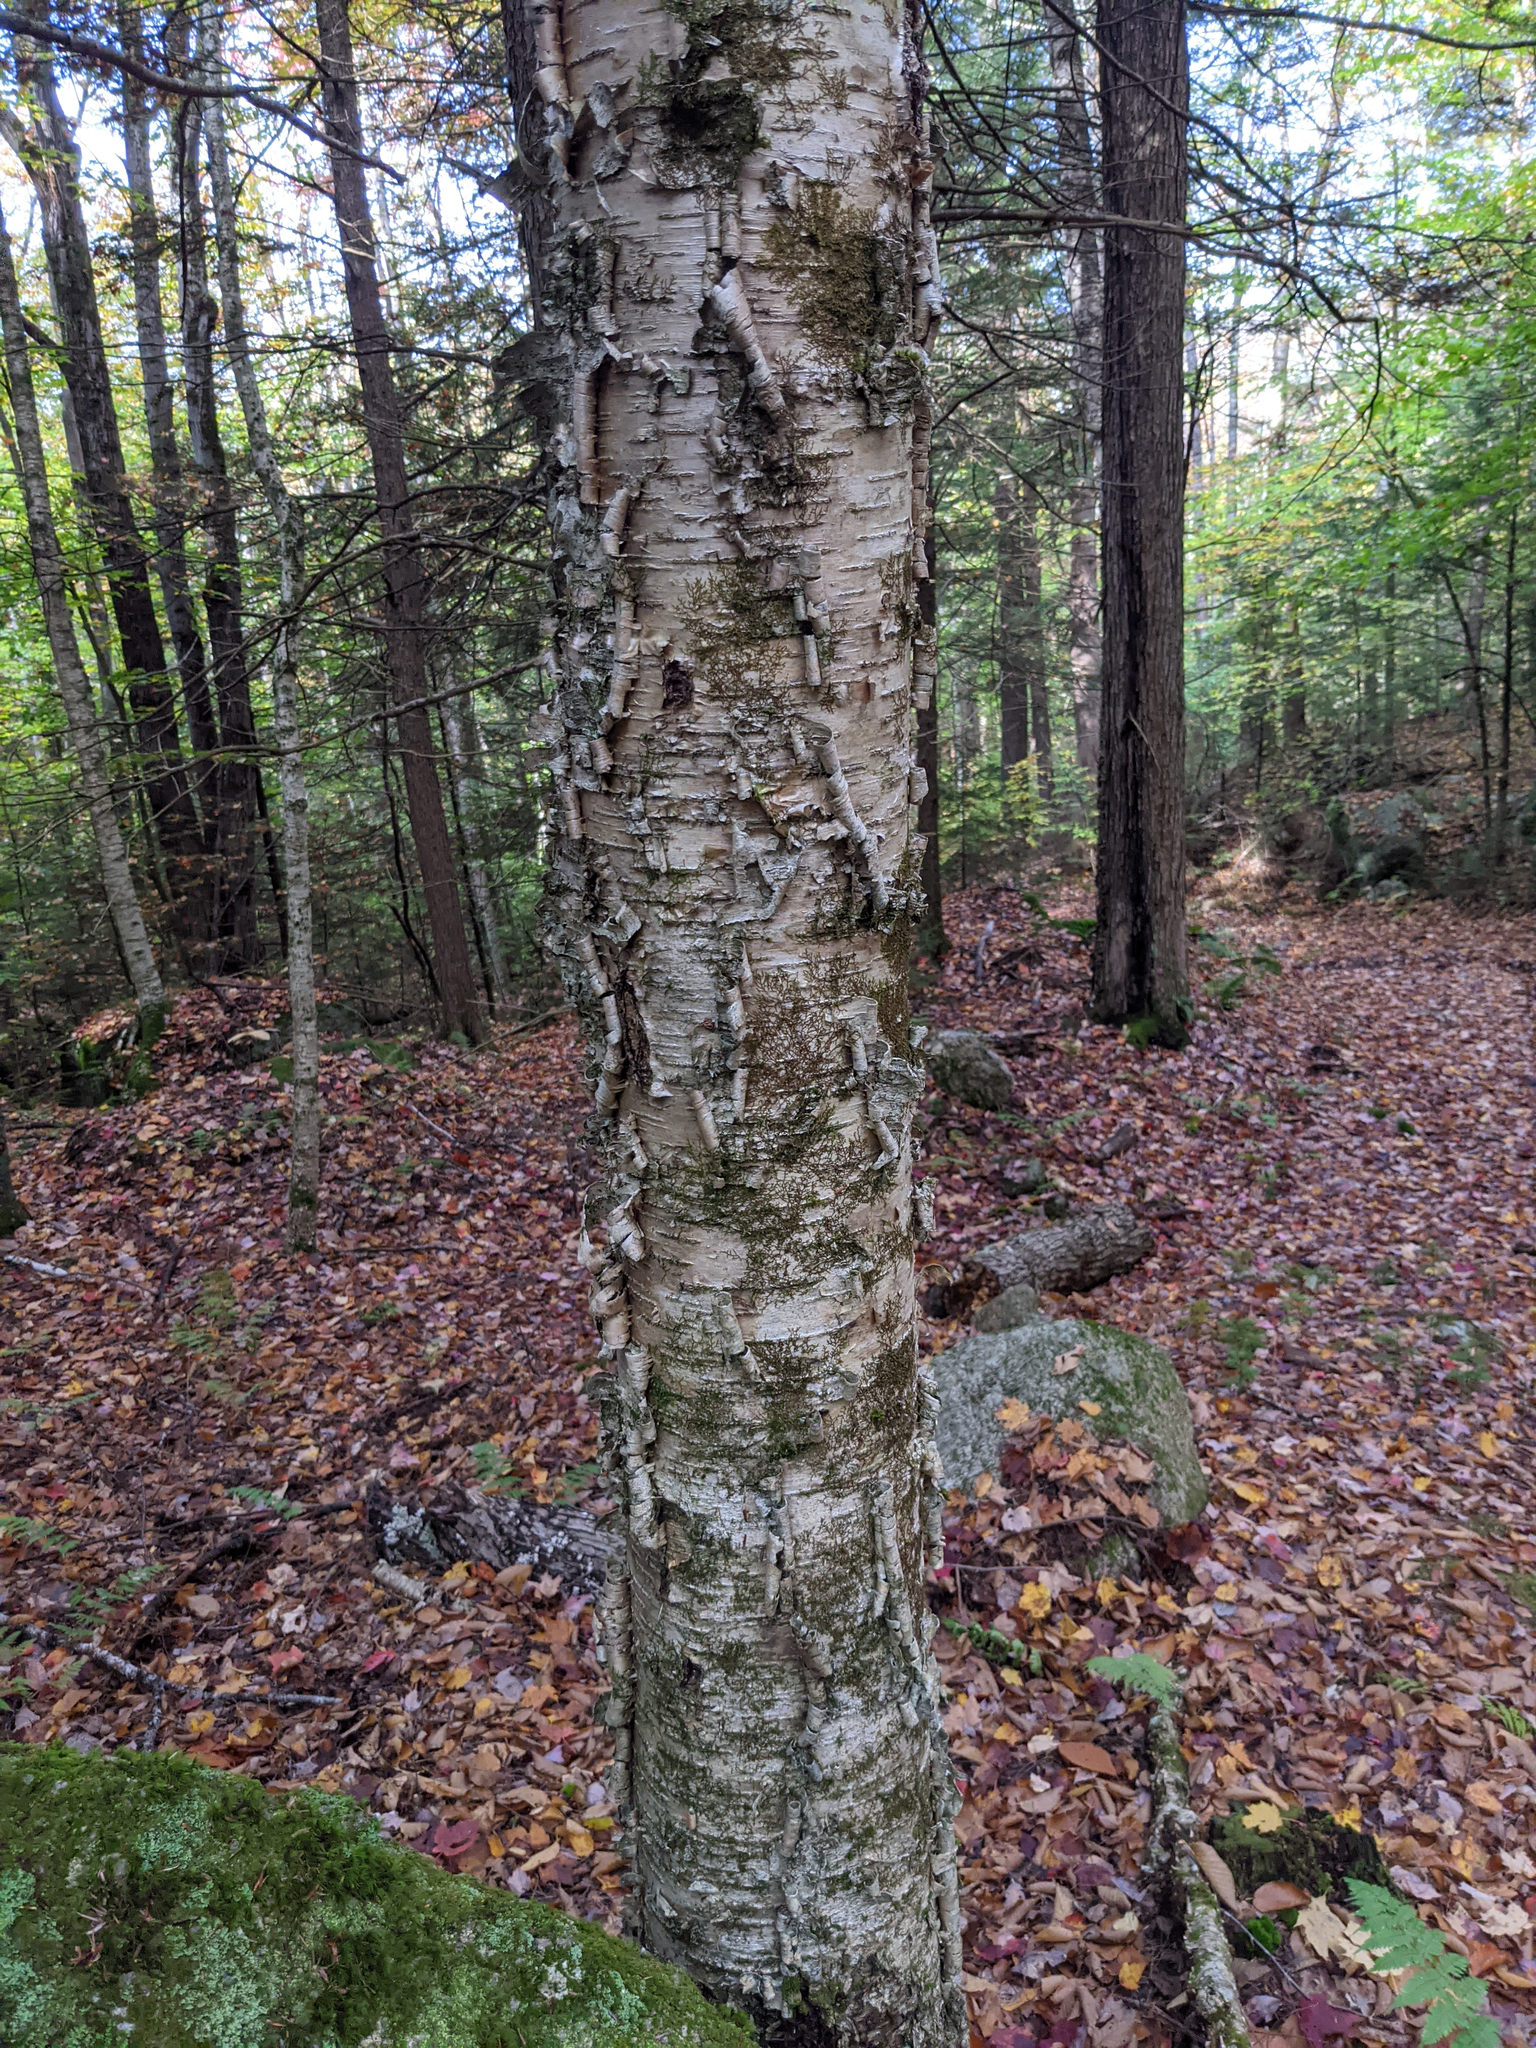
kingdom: Plantae
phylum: Tracheophyta
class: Magnoliopsida
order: Fagales
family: Betulaceae
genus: Betula
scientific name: Betula alleghaniensis
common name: Yellow birch
